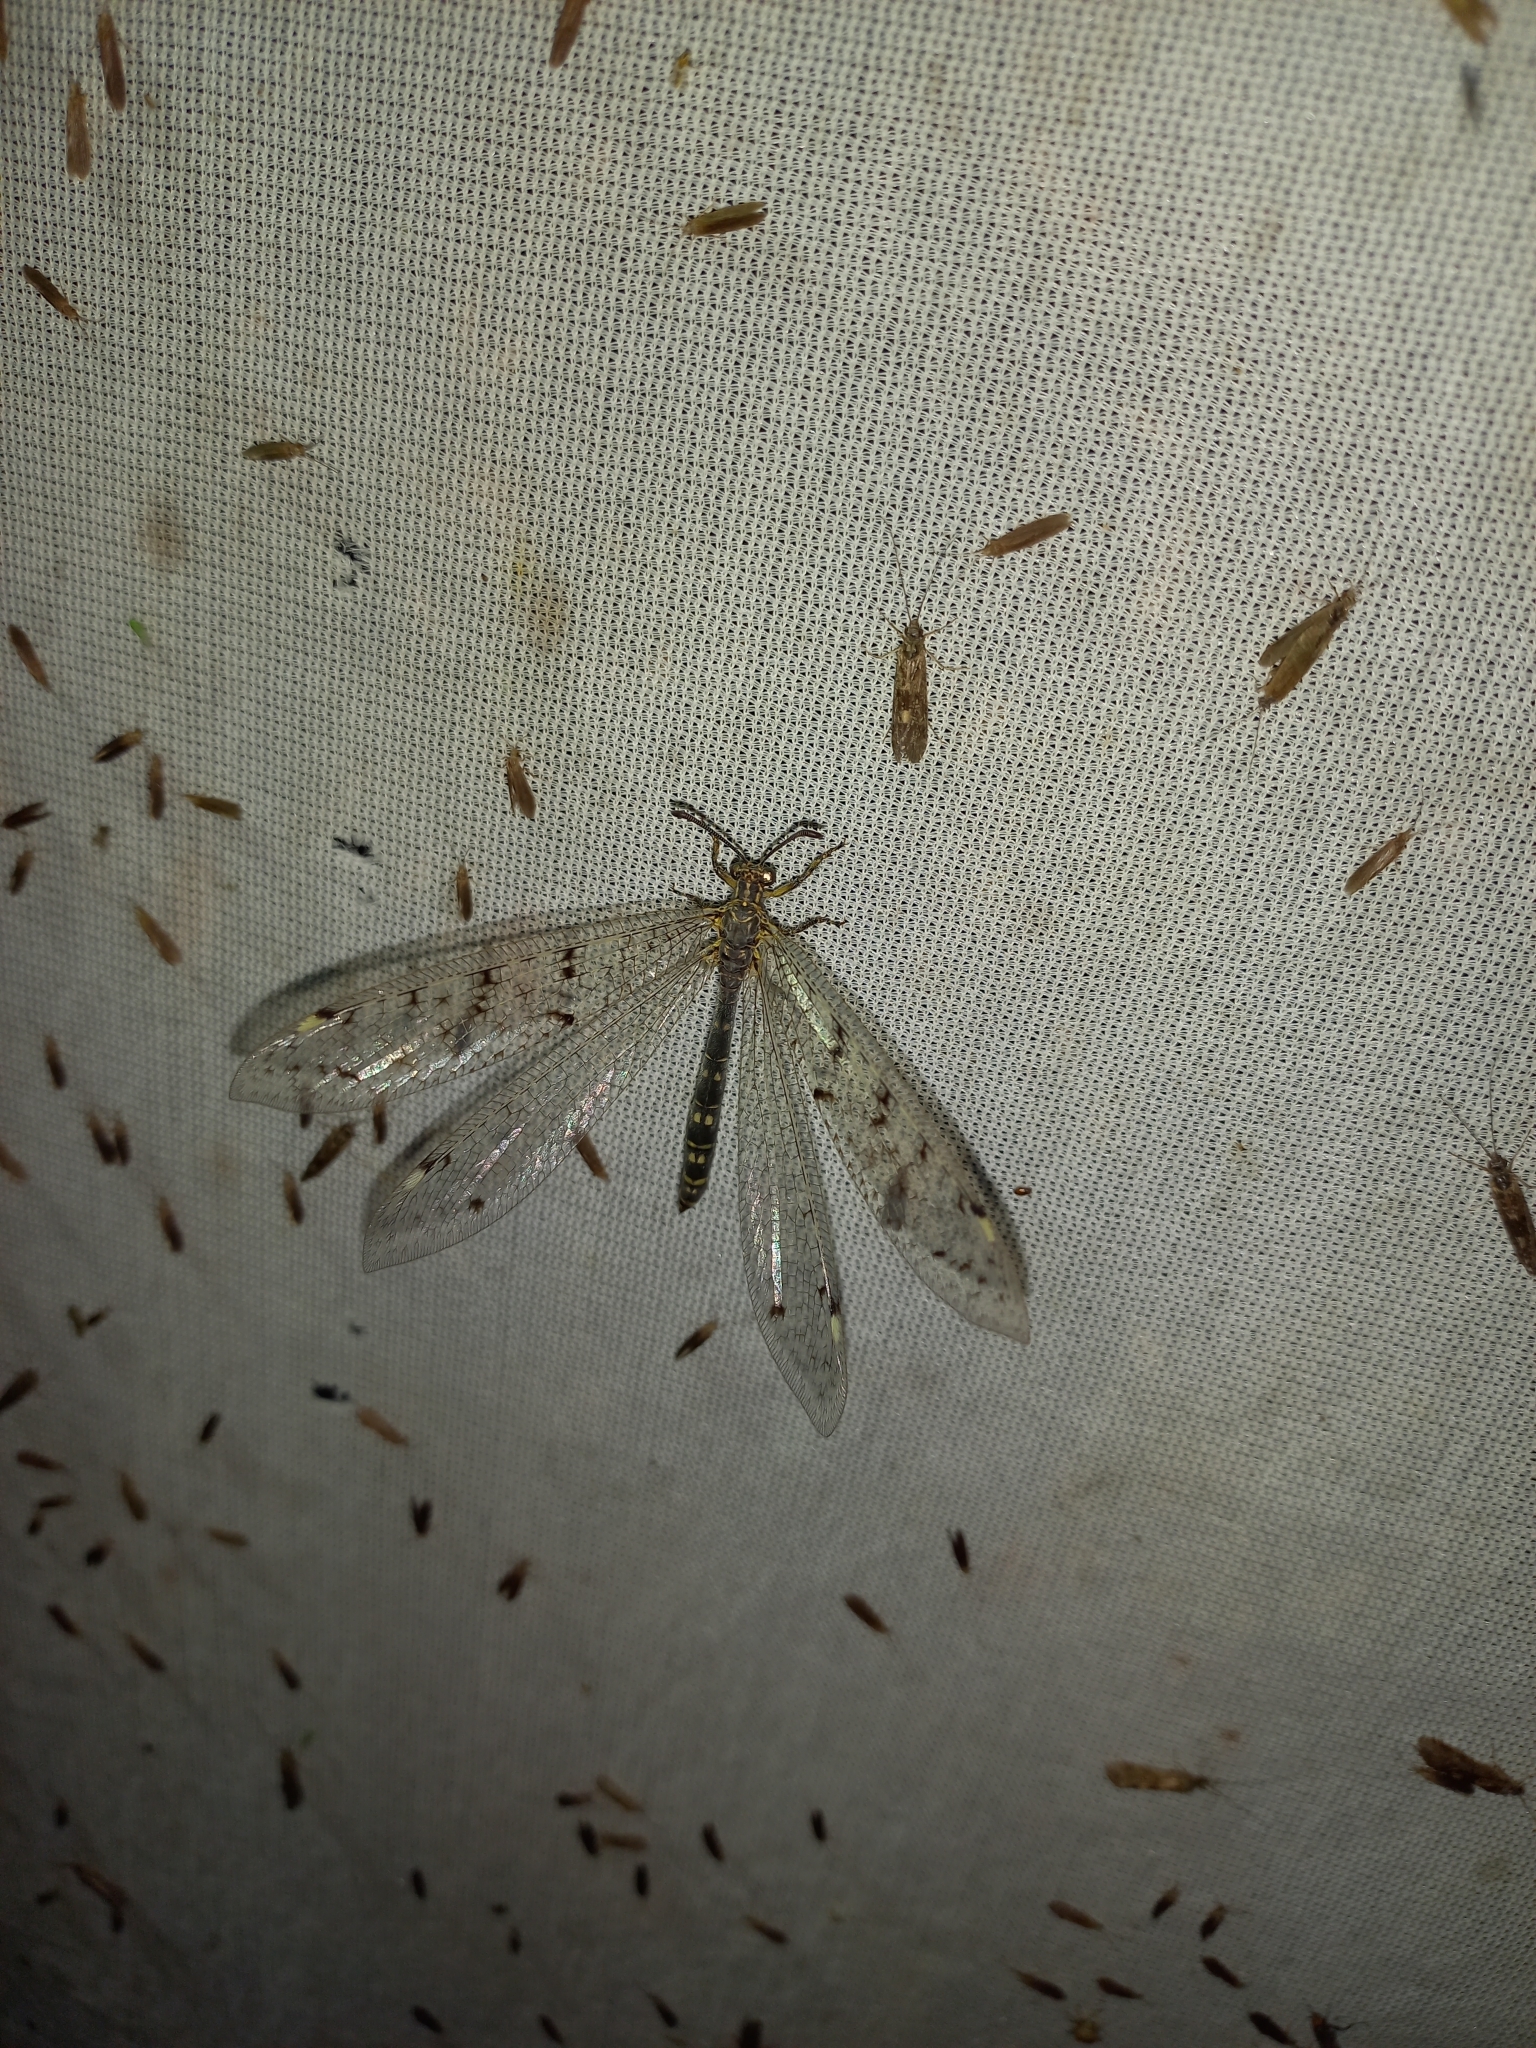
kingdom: Animalia
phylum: Arthropoda
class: Insecta
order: Neuroptera
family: Myrmeleontidae
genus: Distoleon
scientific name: Distoleon tetragrammicus
